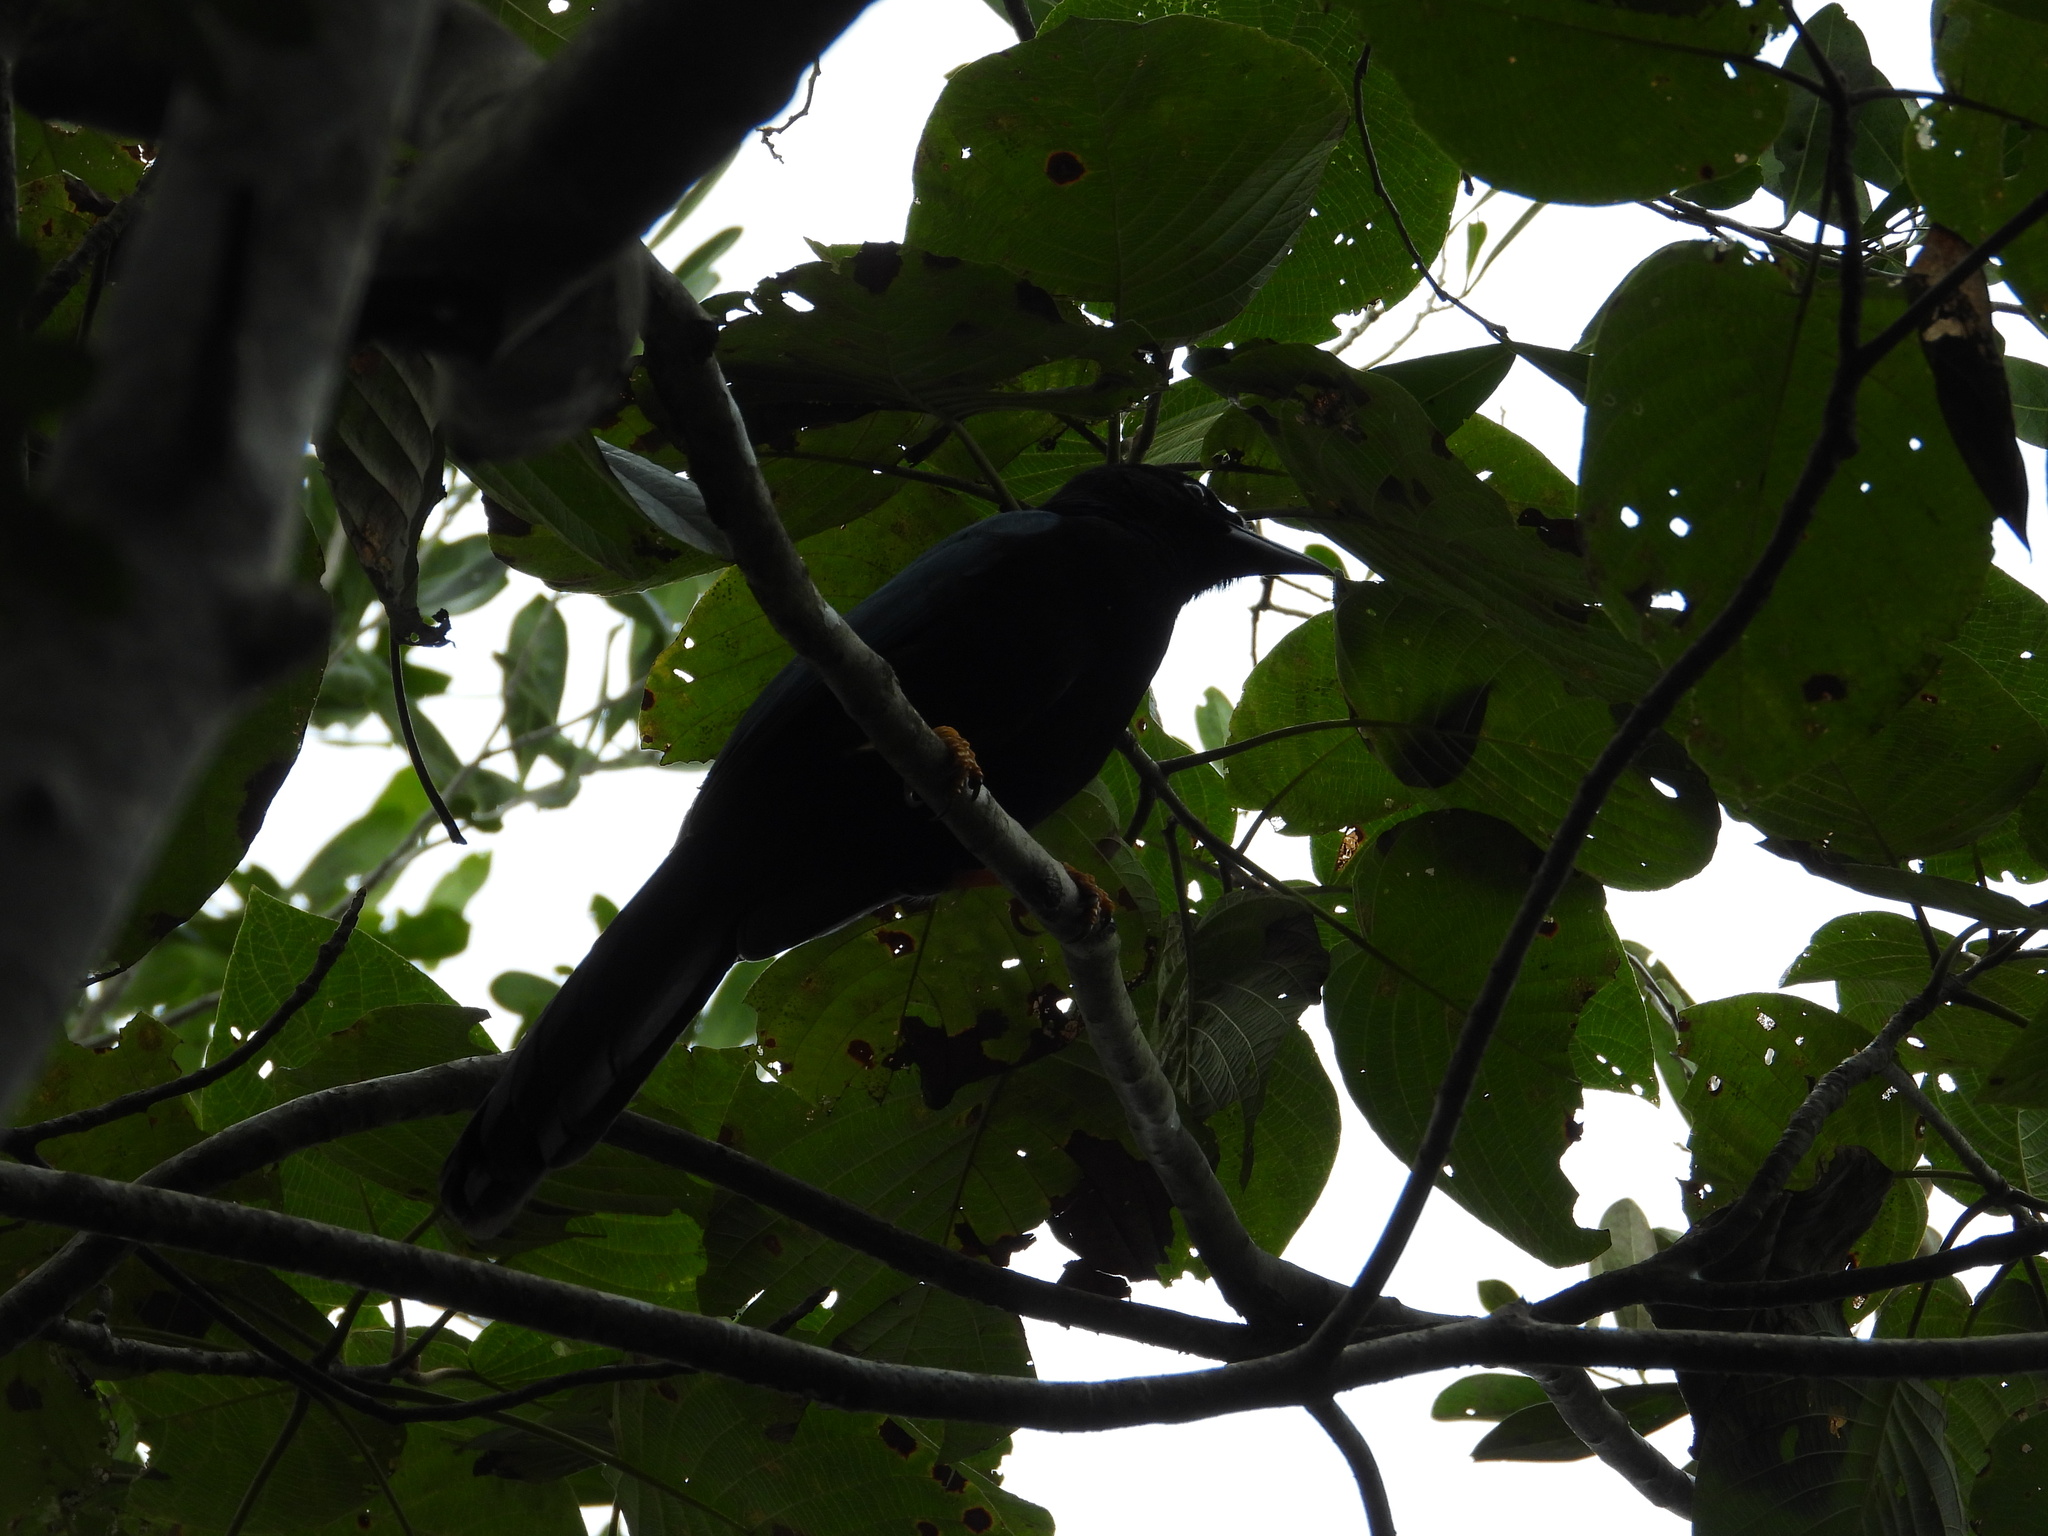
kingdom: Animalia
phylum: Chordata
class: Aves
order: Passeriformes
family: Corvidae
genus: Cyanocorax
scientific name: Cyanocorax yucatanicus
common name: Yucatan jay
